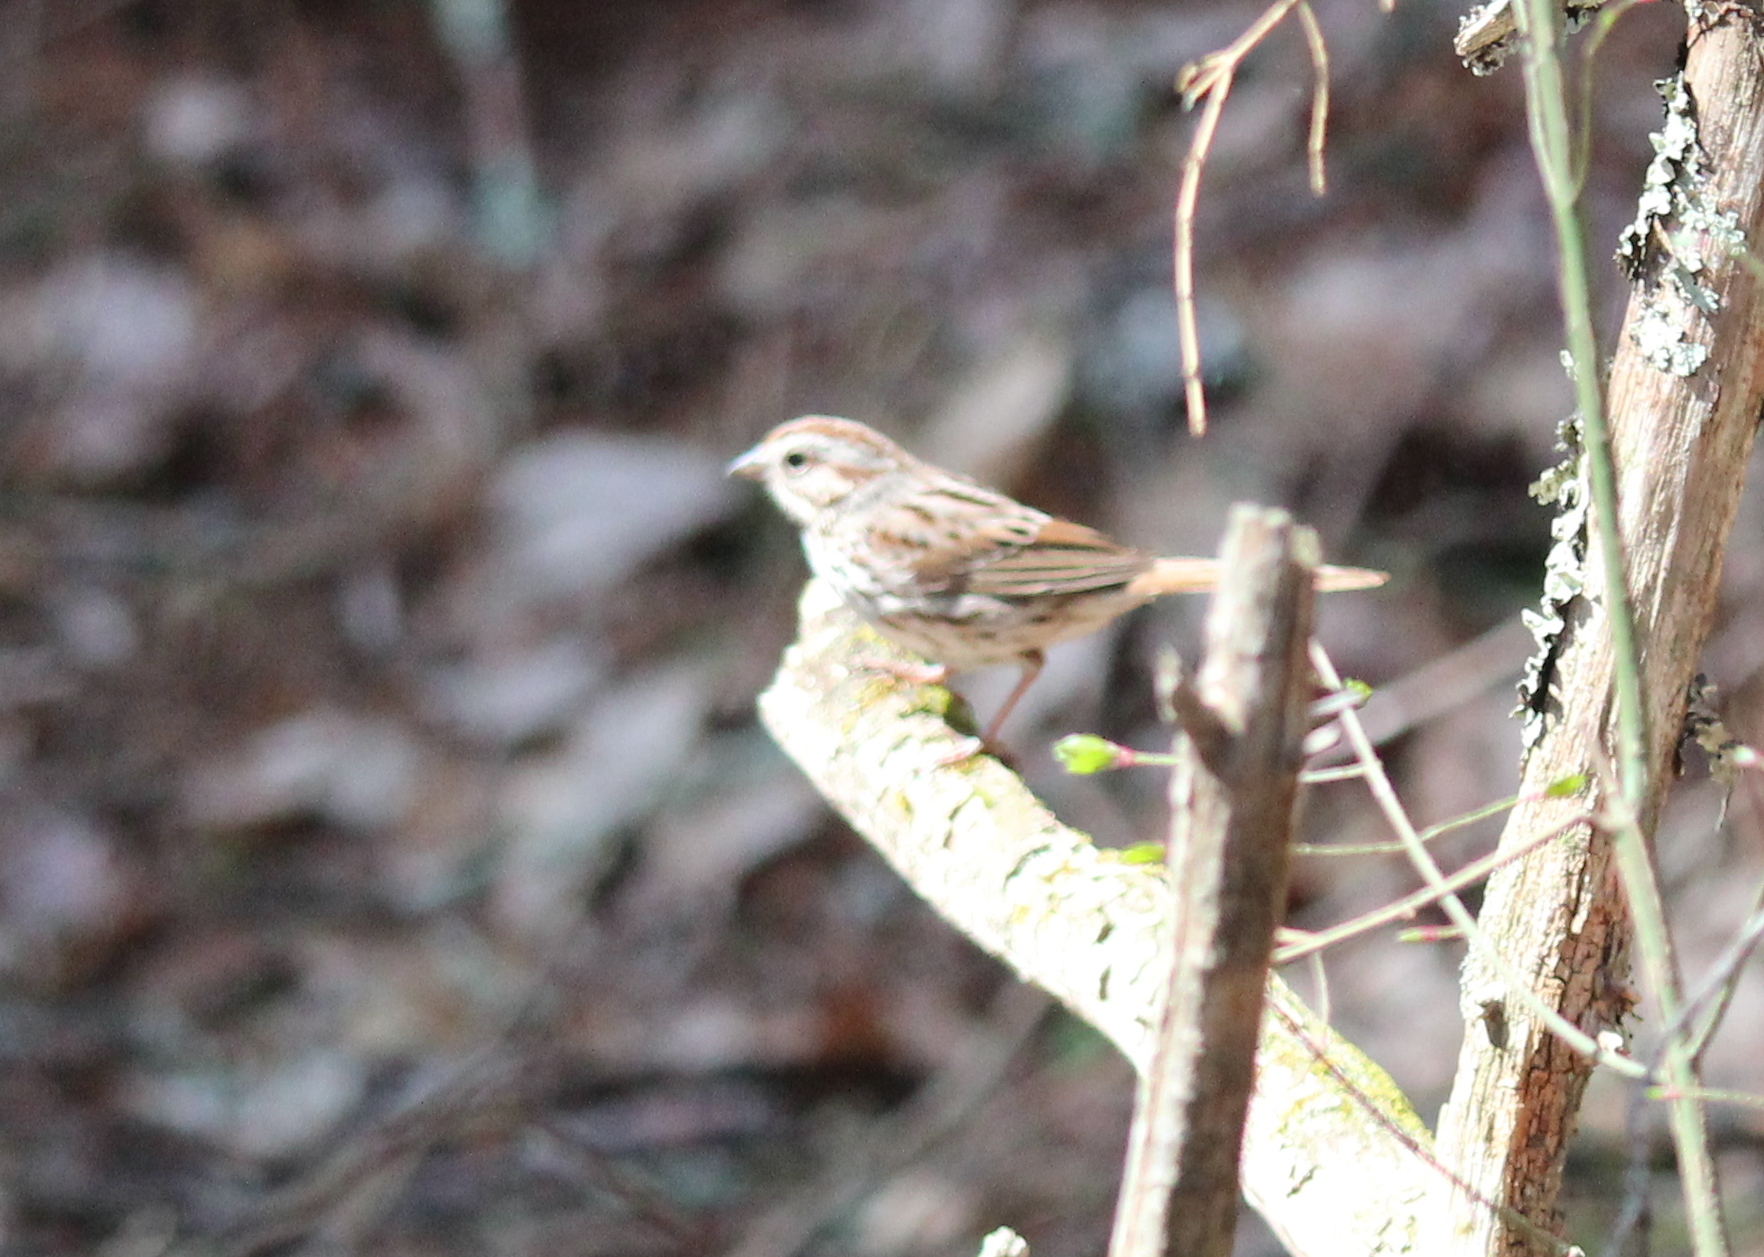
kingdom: Animalia
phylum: Chordata
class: Aves
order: Passeriformes
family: Passerellidae
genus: Melospiza
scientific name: Melospiza melodia
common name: Song sparrow
